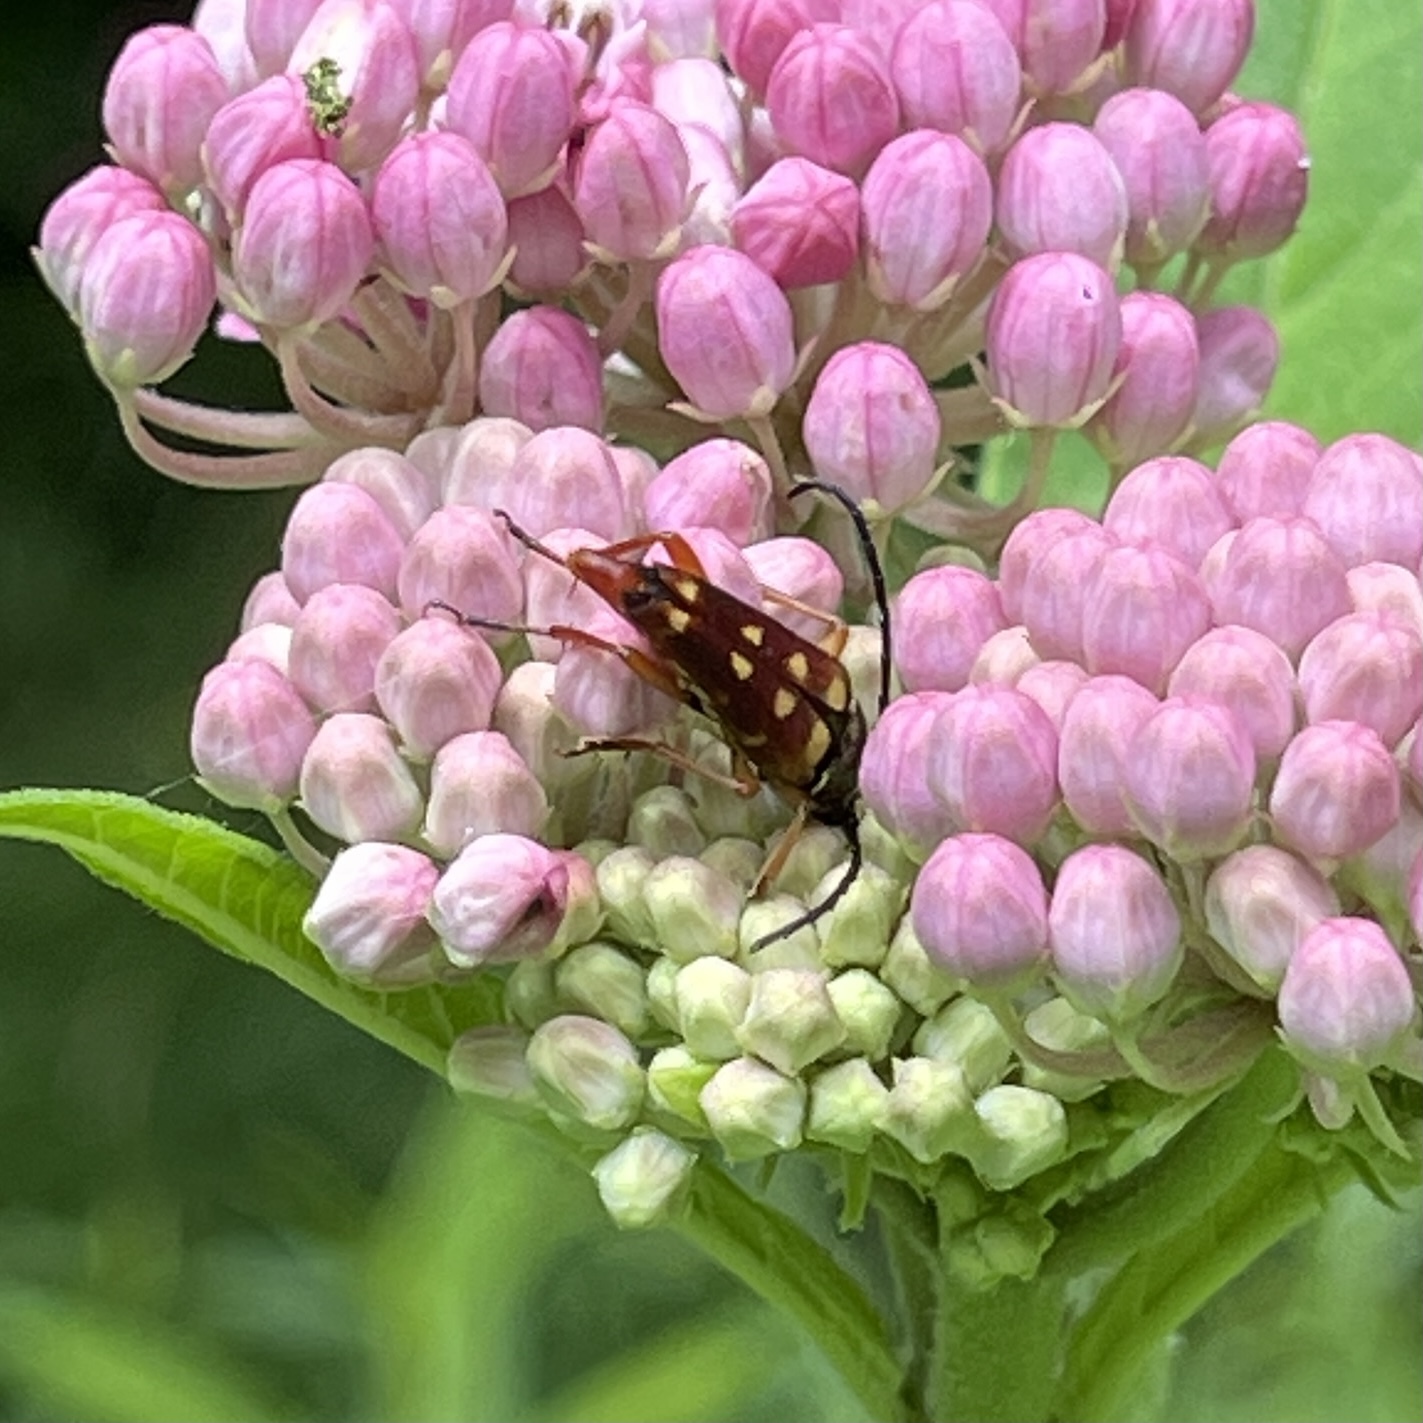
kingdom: Animalia
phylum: Arthropoda
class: Insecta
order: Coleoptera
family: Cerambycidae
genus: Typocerus
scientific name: Typocerus velutinus
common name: Banded longhorn beetle
